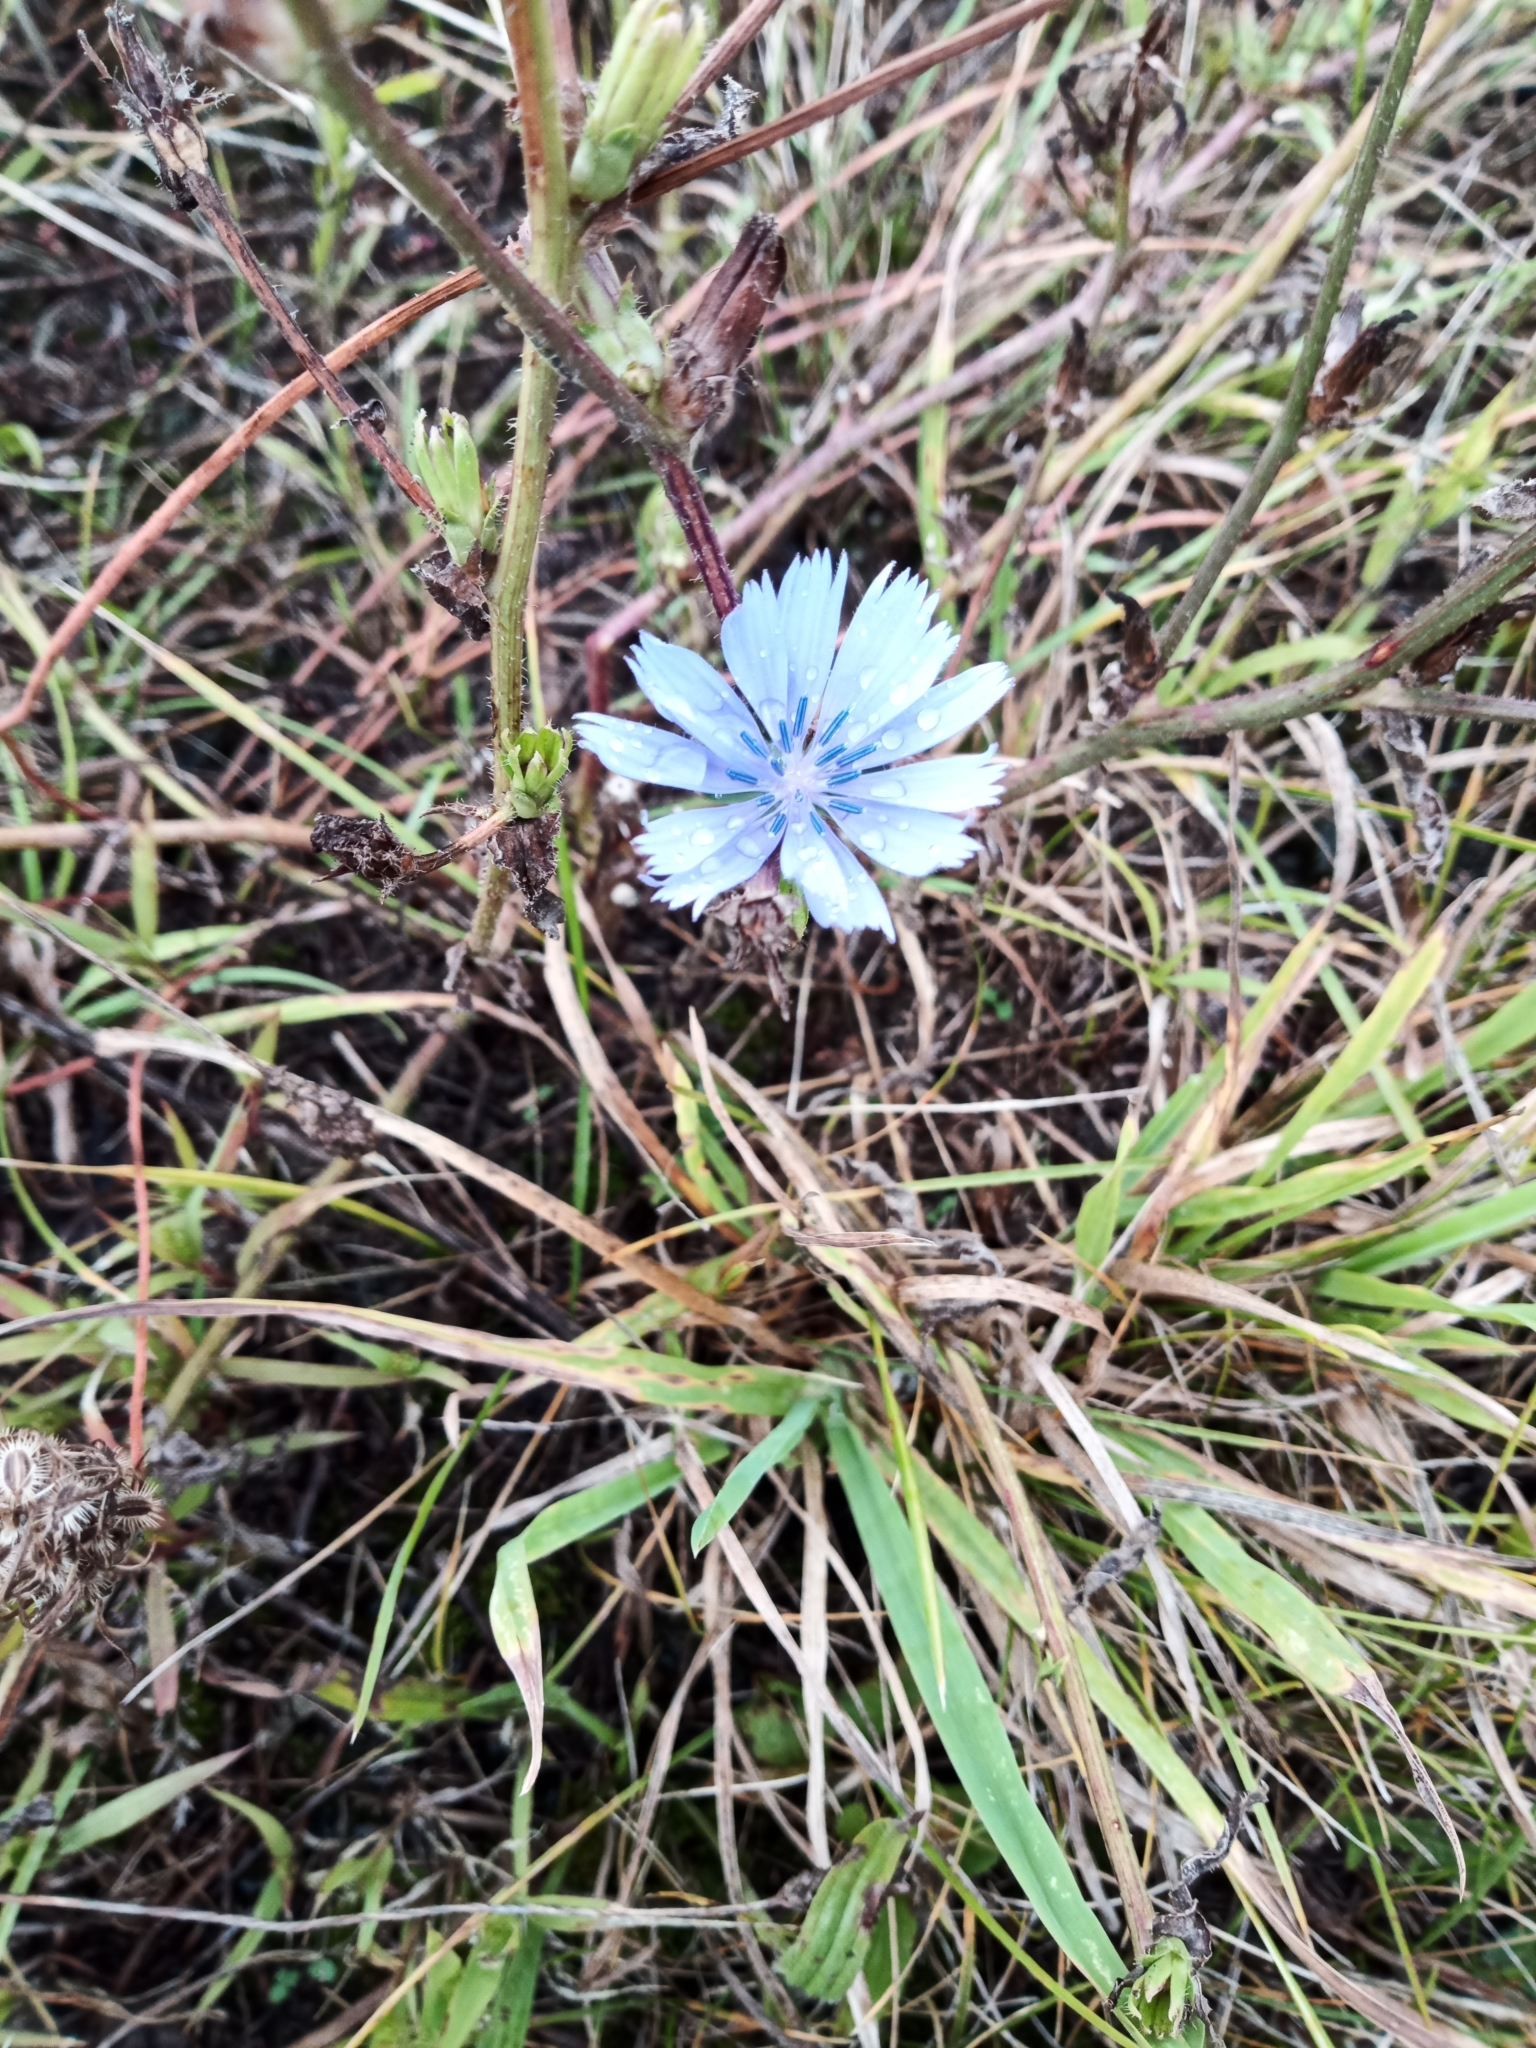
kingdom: Plantae
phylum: Tracheophyta
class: Magnoliopsida
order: Asterales
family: Asteraceae
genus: Cichorium
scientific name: Cichorium intybus
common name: Chicory
